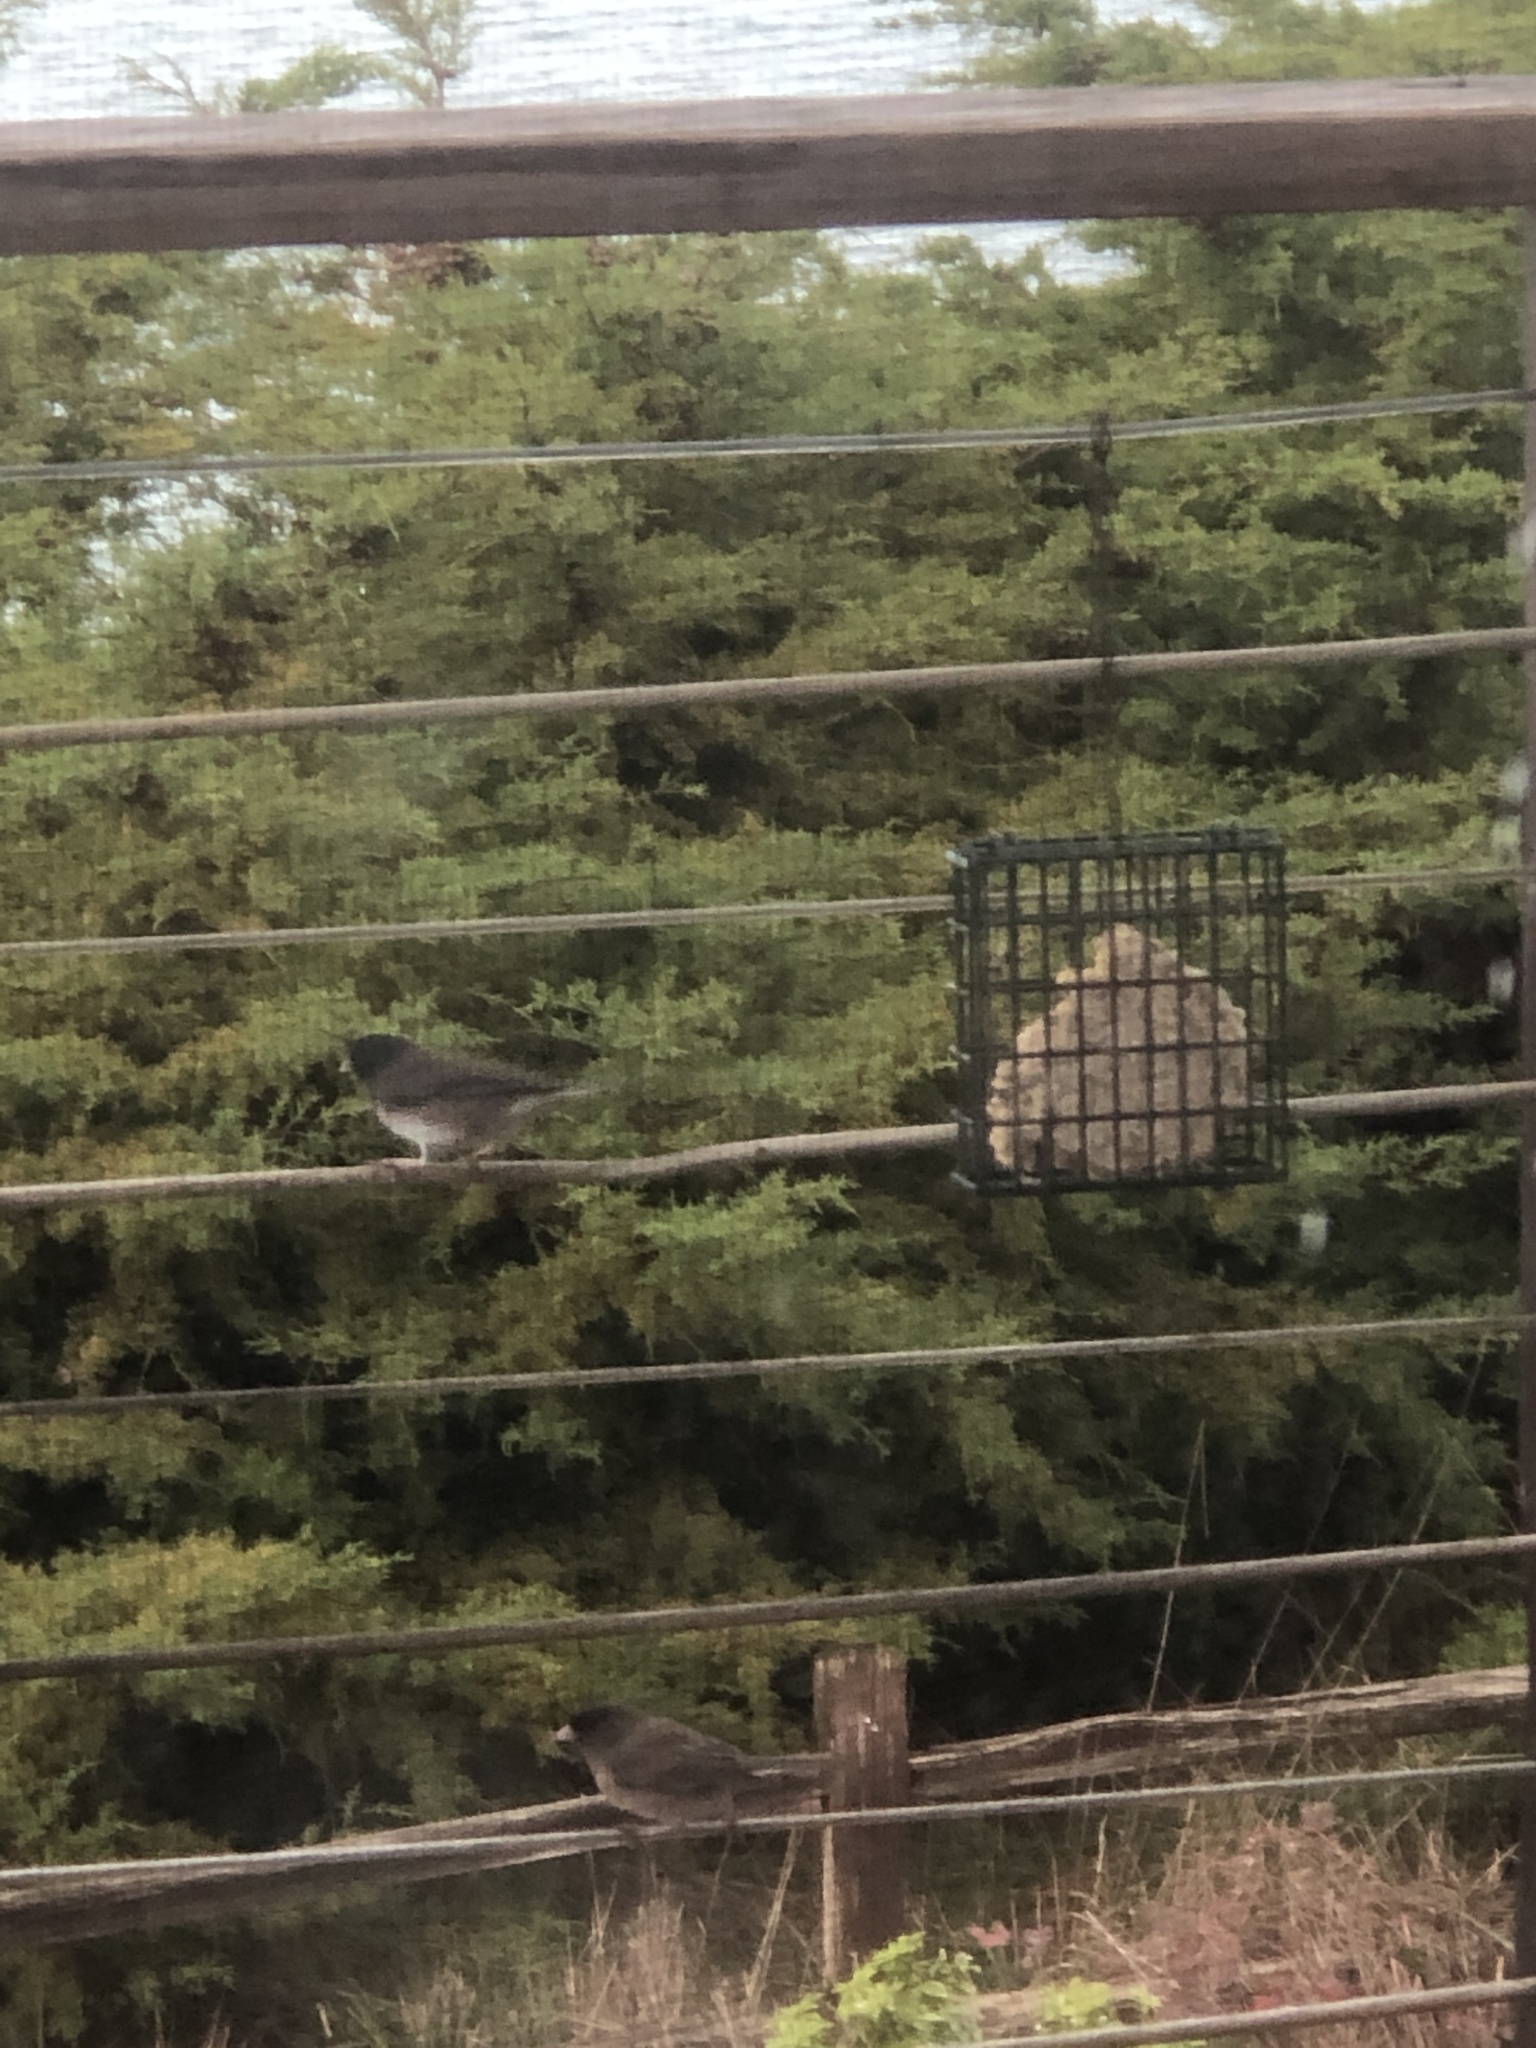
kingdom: Animalia
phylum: Chordata
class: Aves
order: Passeriformes
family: Passerellidae
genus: Junco
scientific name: Junco hyemalis
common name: Dark-eyed junco
